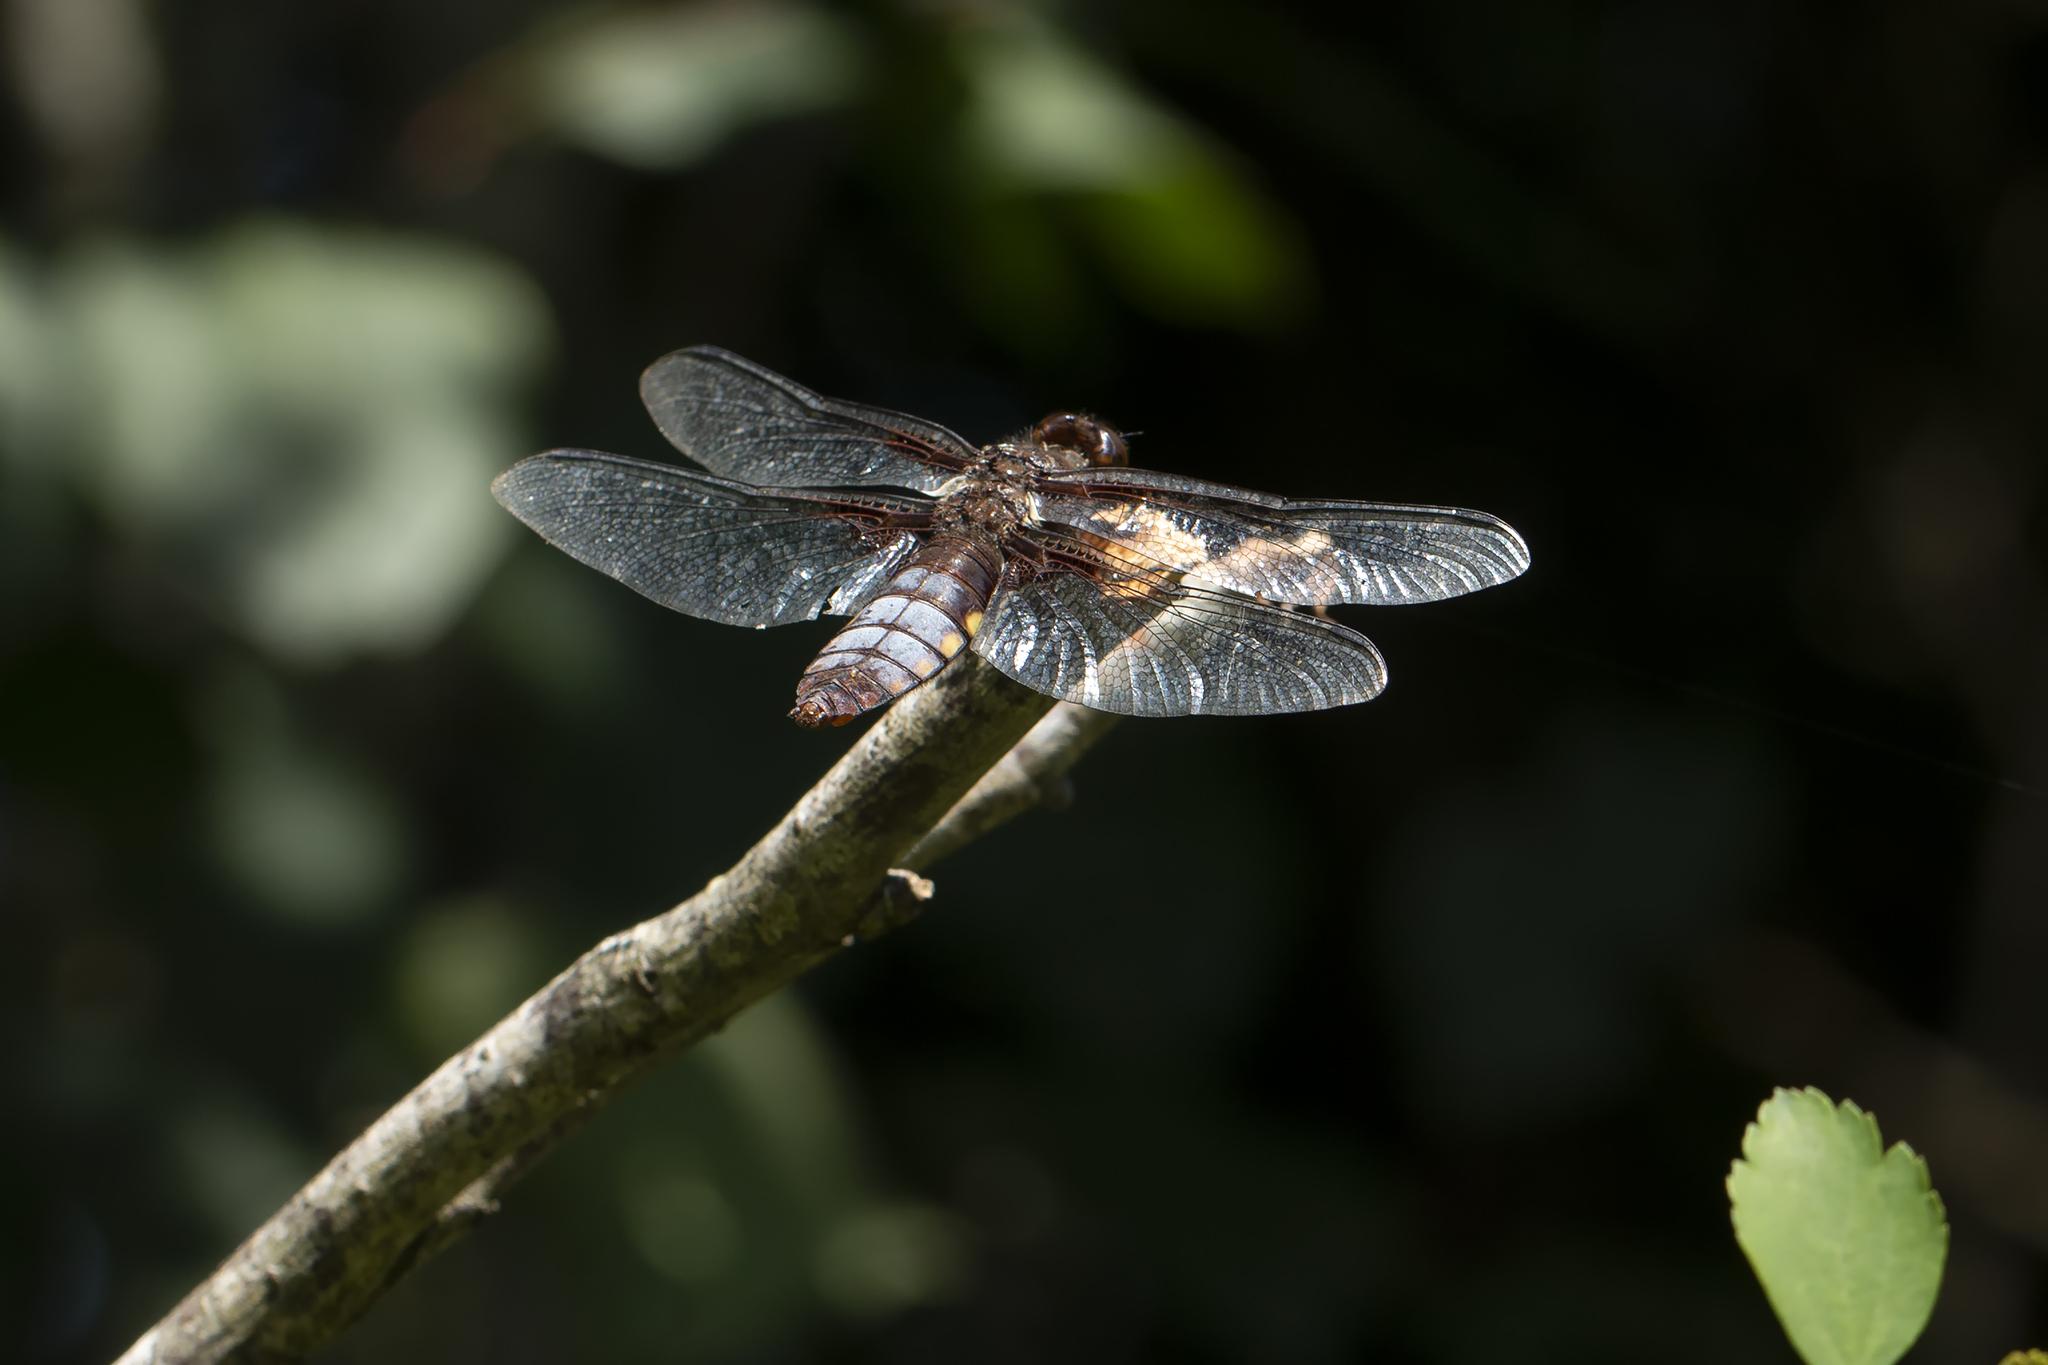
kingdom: Animalia
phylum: Arthropoda
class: Insecta
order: Odonata
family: Libellulidae
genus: Libellula
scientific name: Libellula depressa
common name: Broad-bodied chaser
